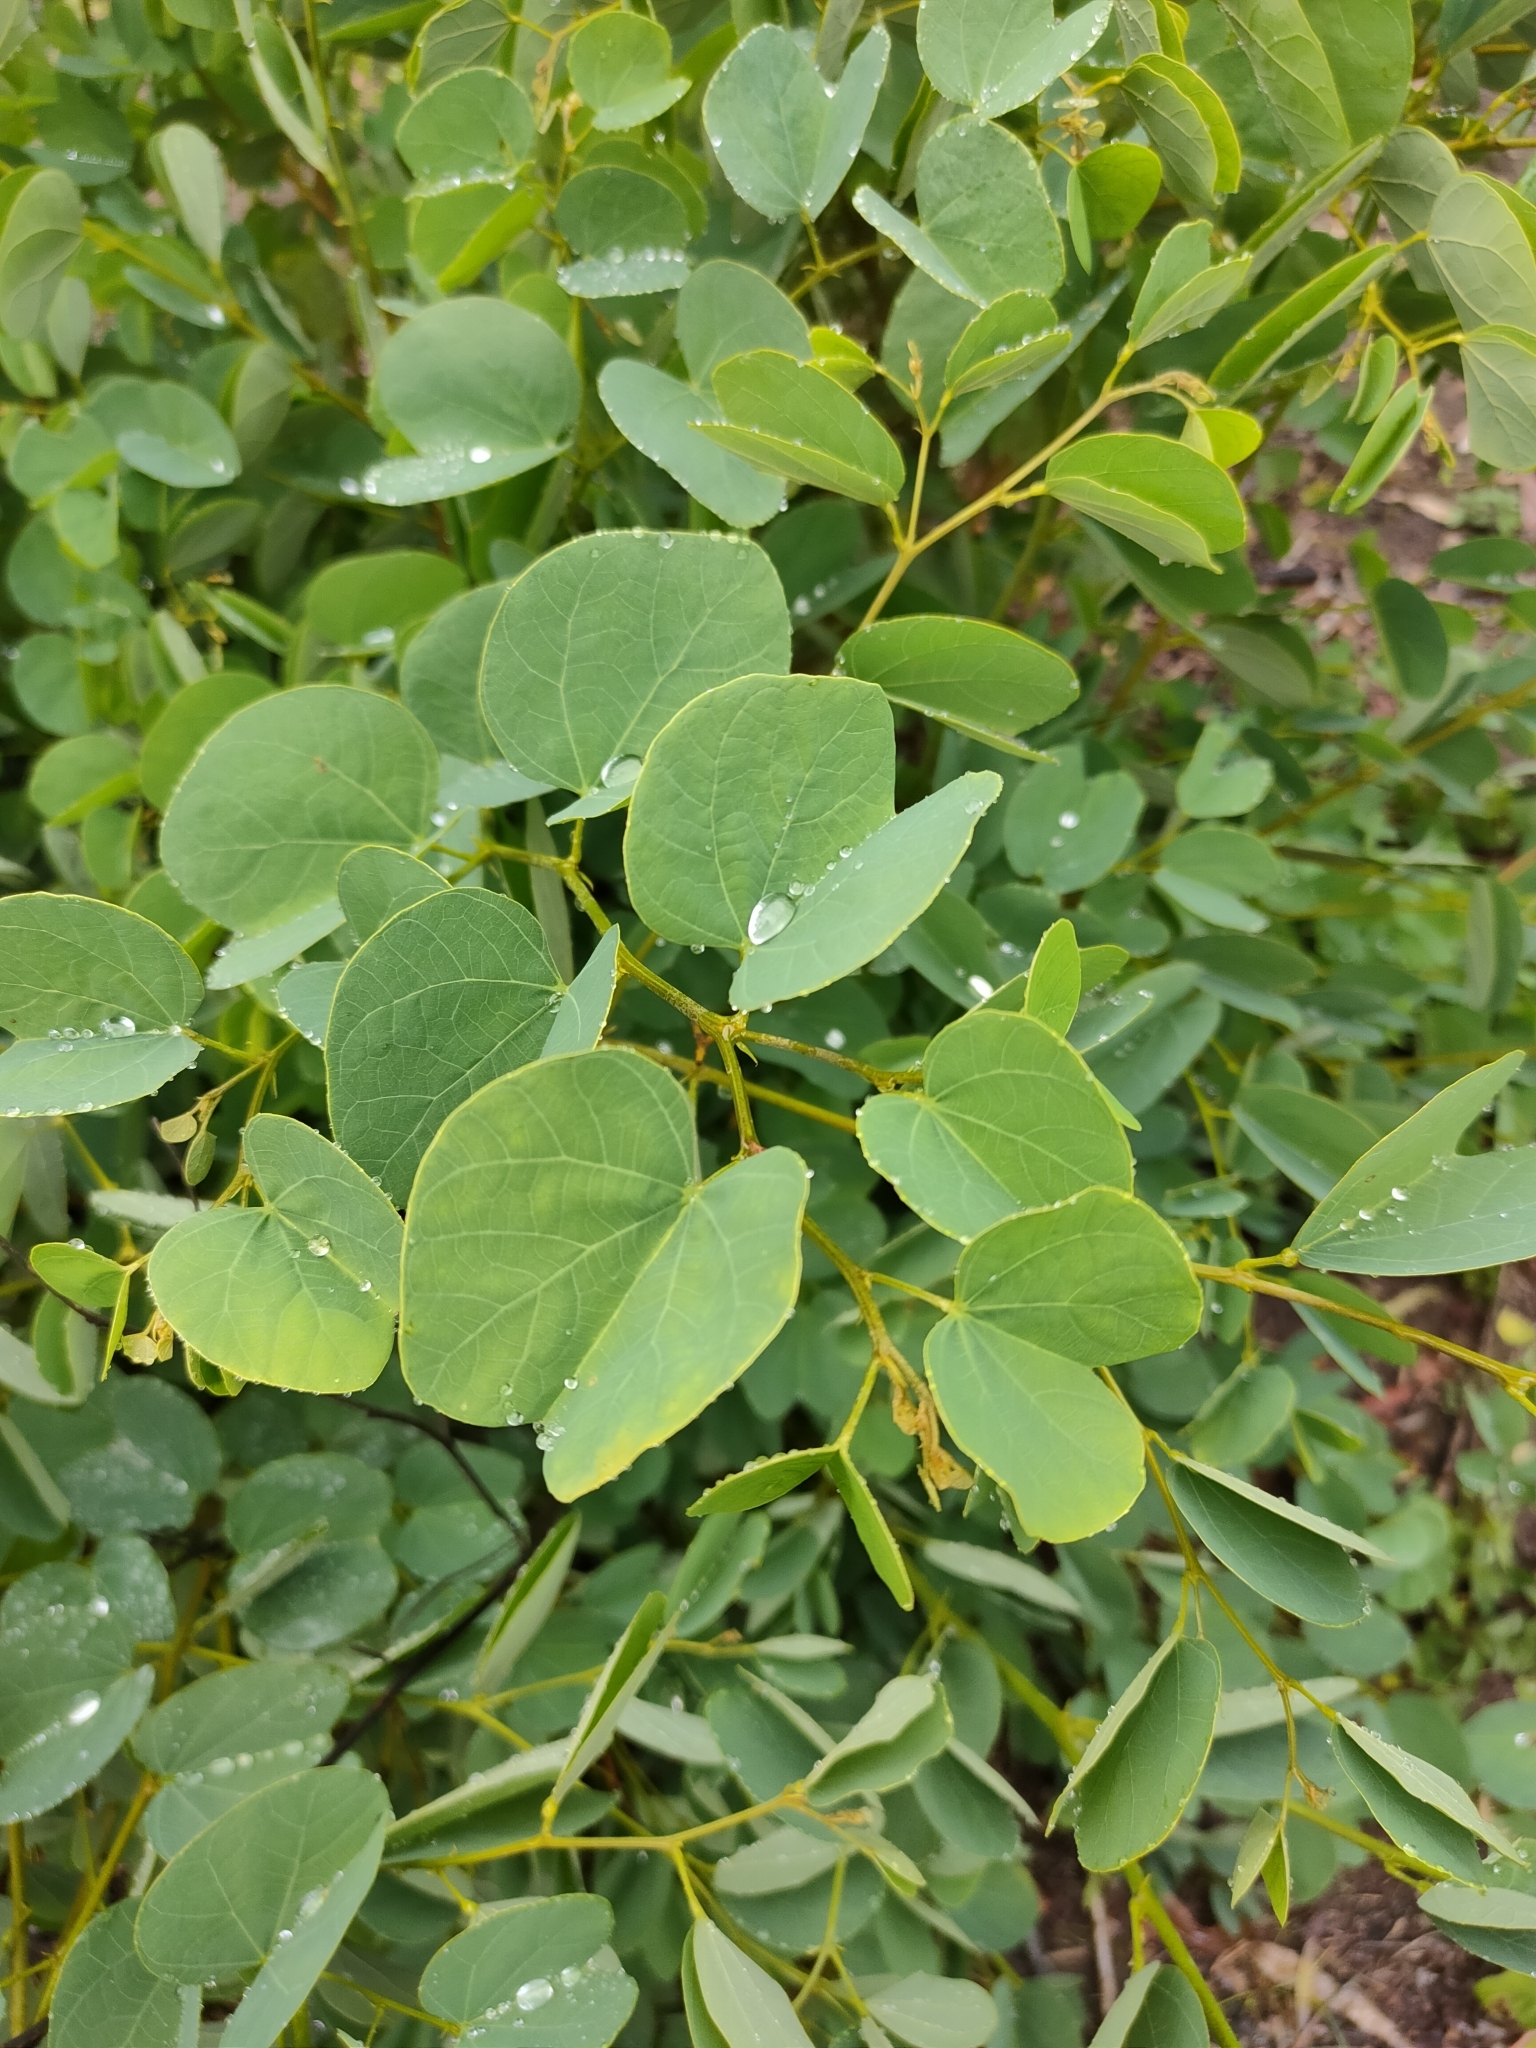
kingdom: Plantae
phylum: Tracheophyta
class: Magnoliopsida
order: Fabales
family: Fabaceae
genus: Bauhinia
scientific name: Bauhinia galpinii
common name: African plume
